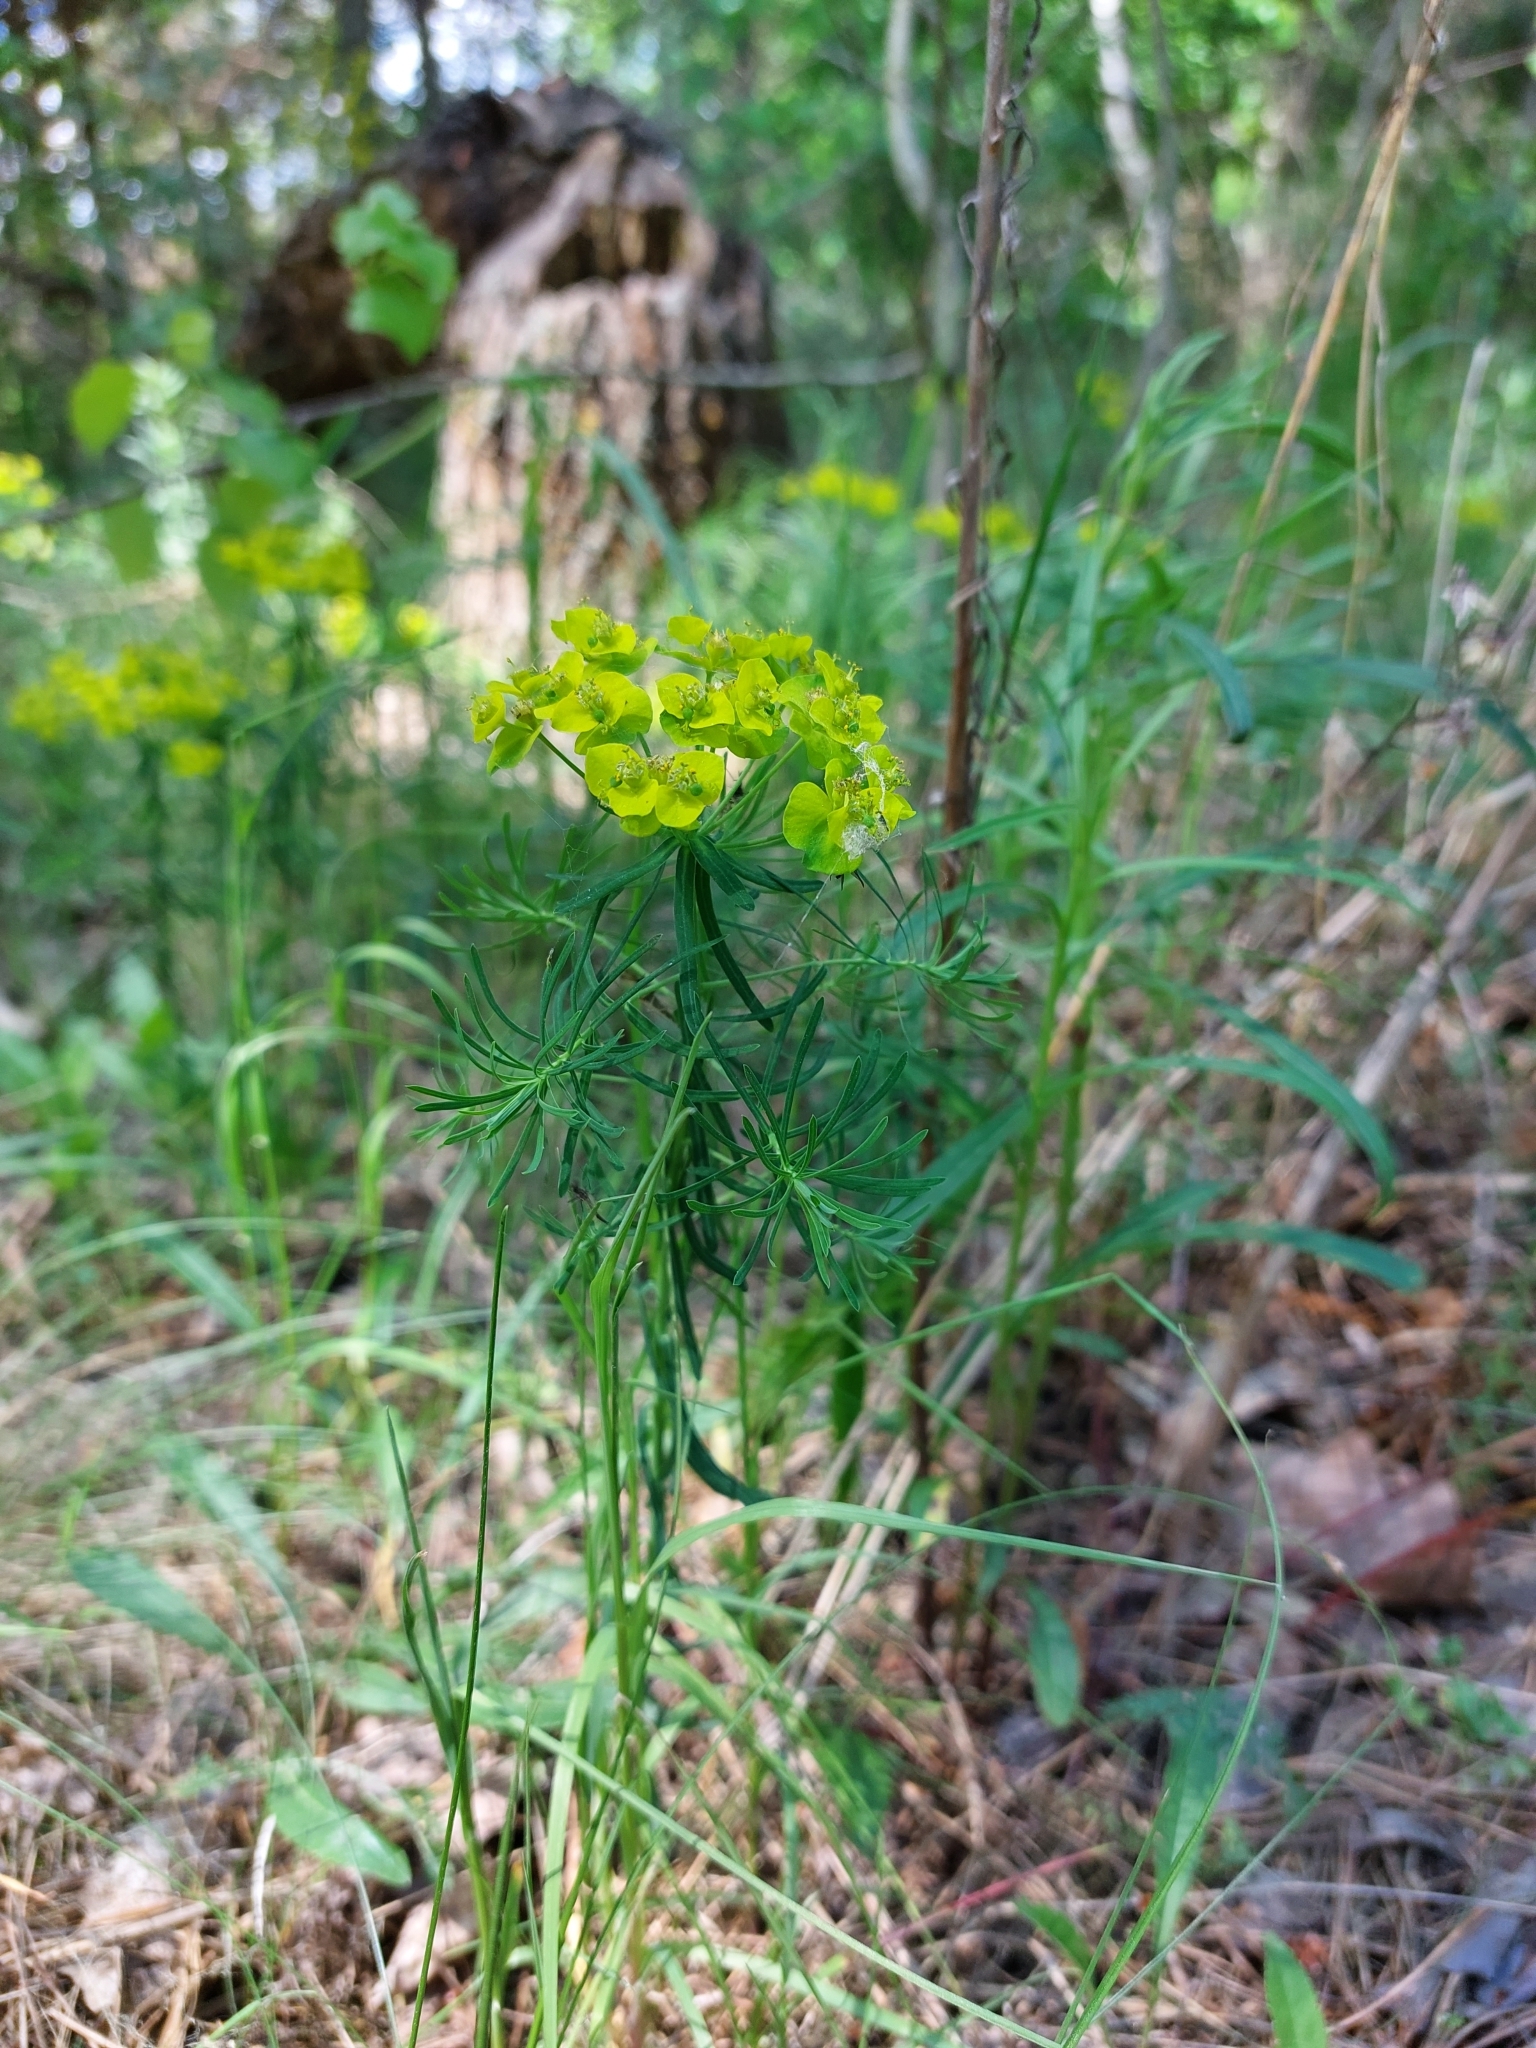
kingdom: Plantae
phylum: Tracheophyta
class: Magnoliopsida
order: Malpighiales
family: Euphorbiaceae
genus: Euphorbia
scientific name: Euphorbia cyparissias
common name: Cypress spurge
